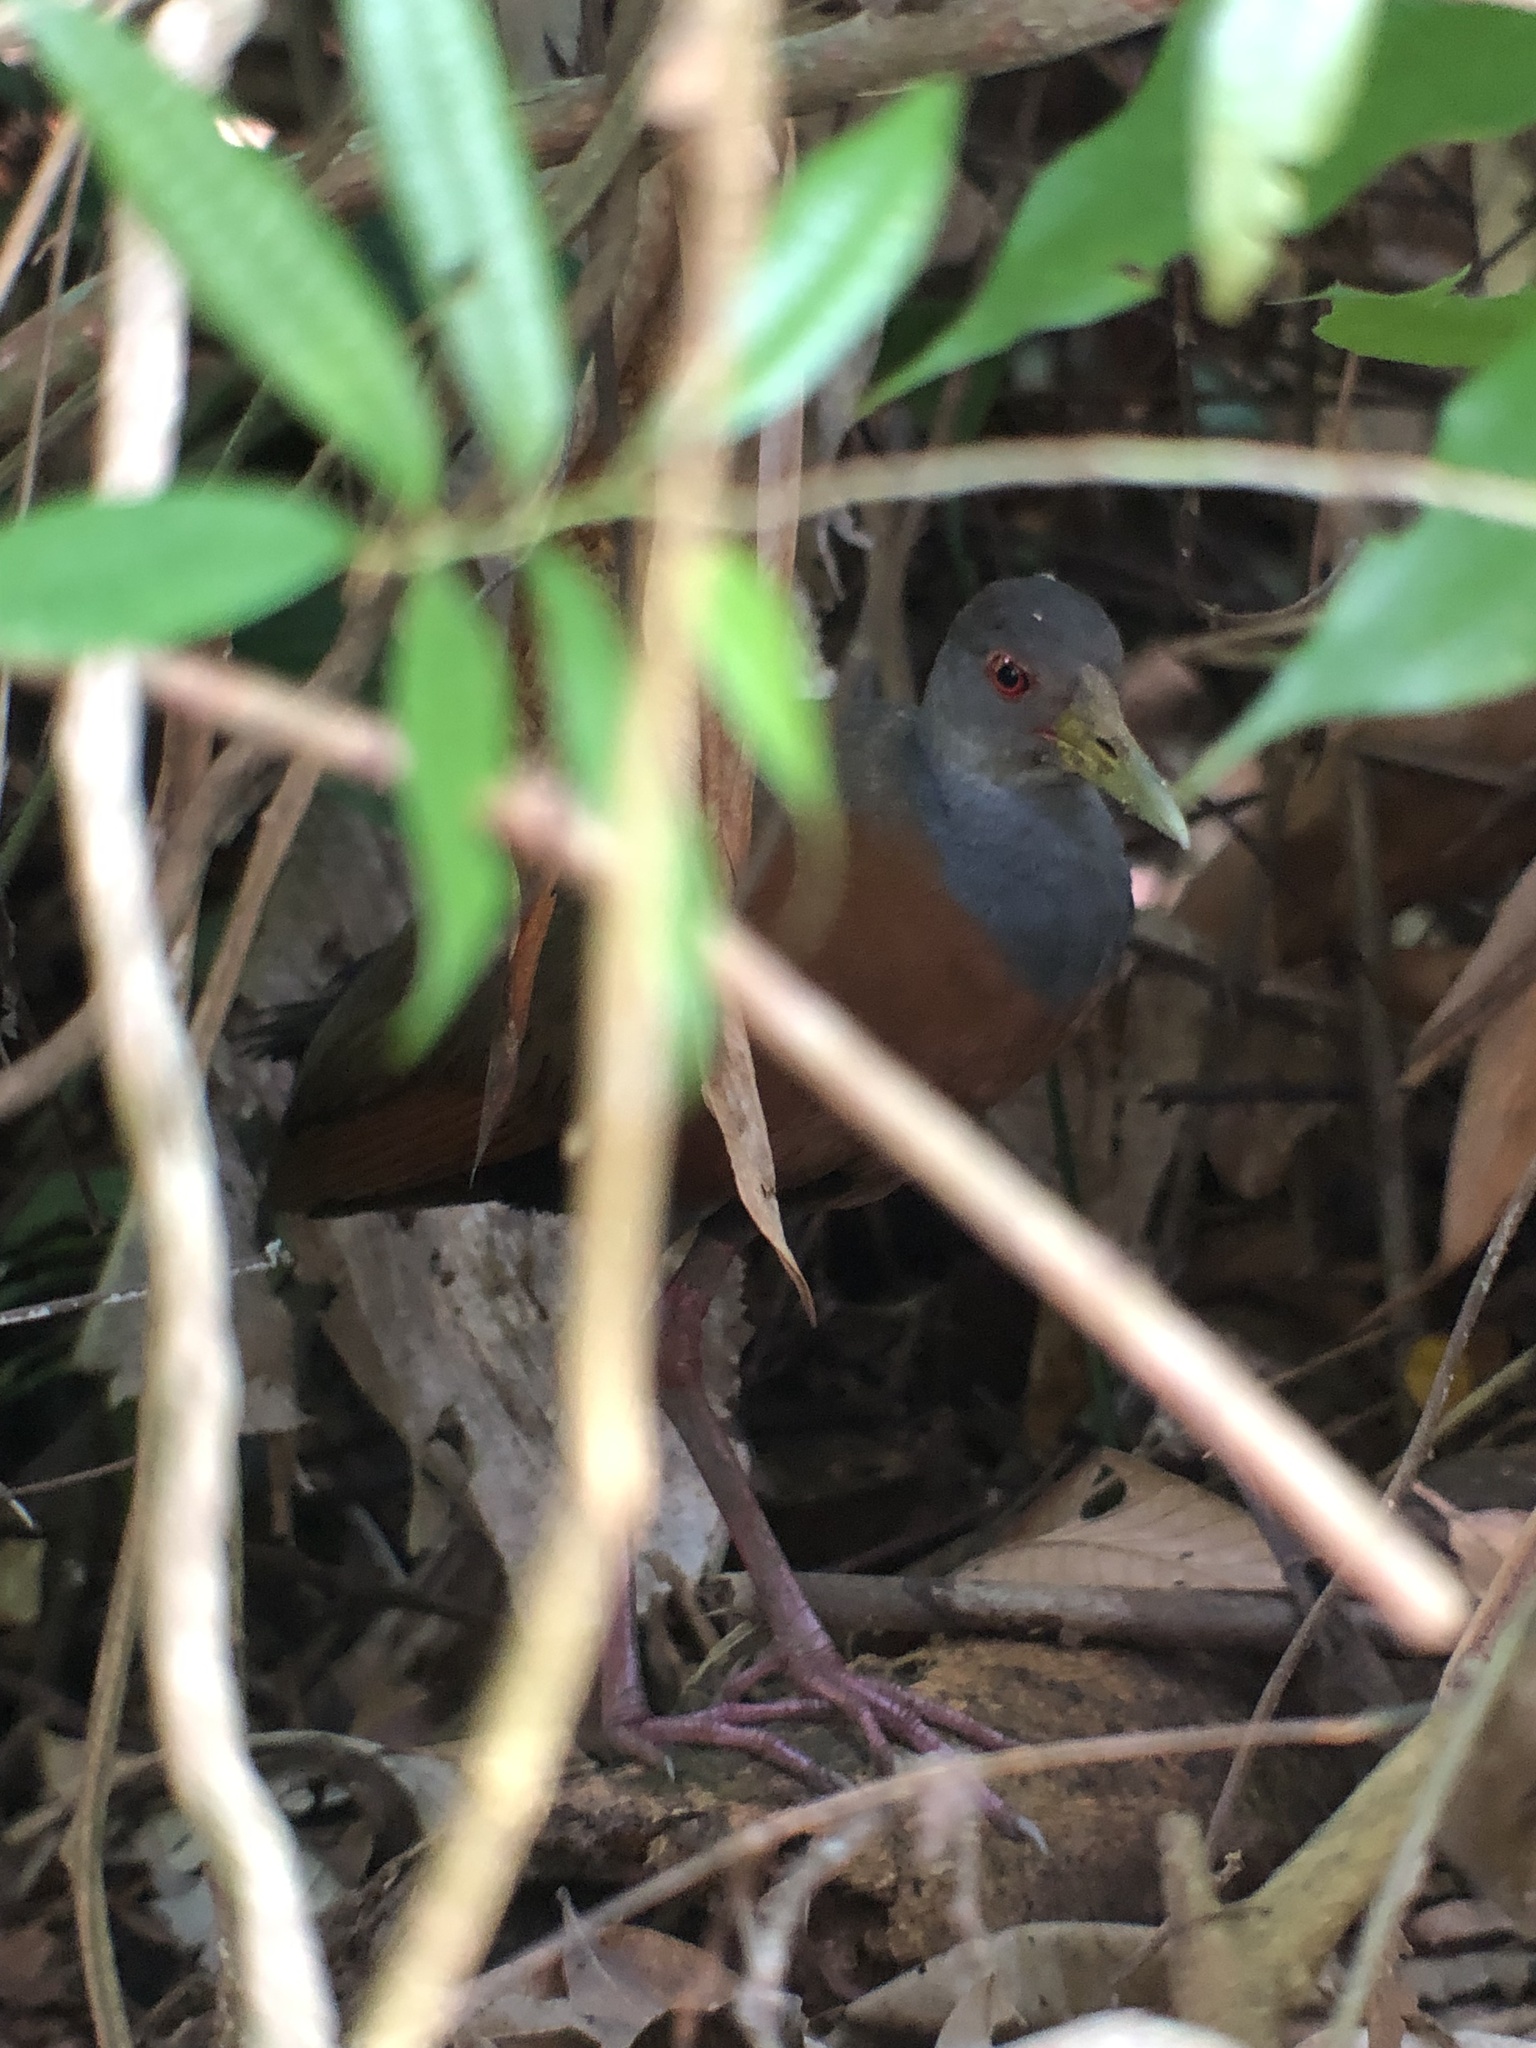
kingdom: Animalia
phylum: Chordata
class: Aves
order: Gruiformes
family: Rallidae
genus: Aramides
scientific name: Aramides cajanea
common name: Gray-necked wood-rail
